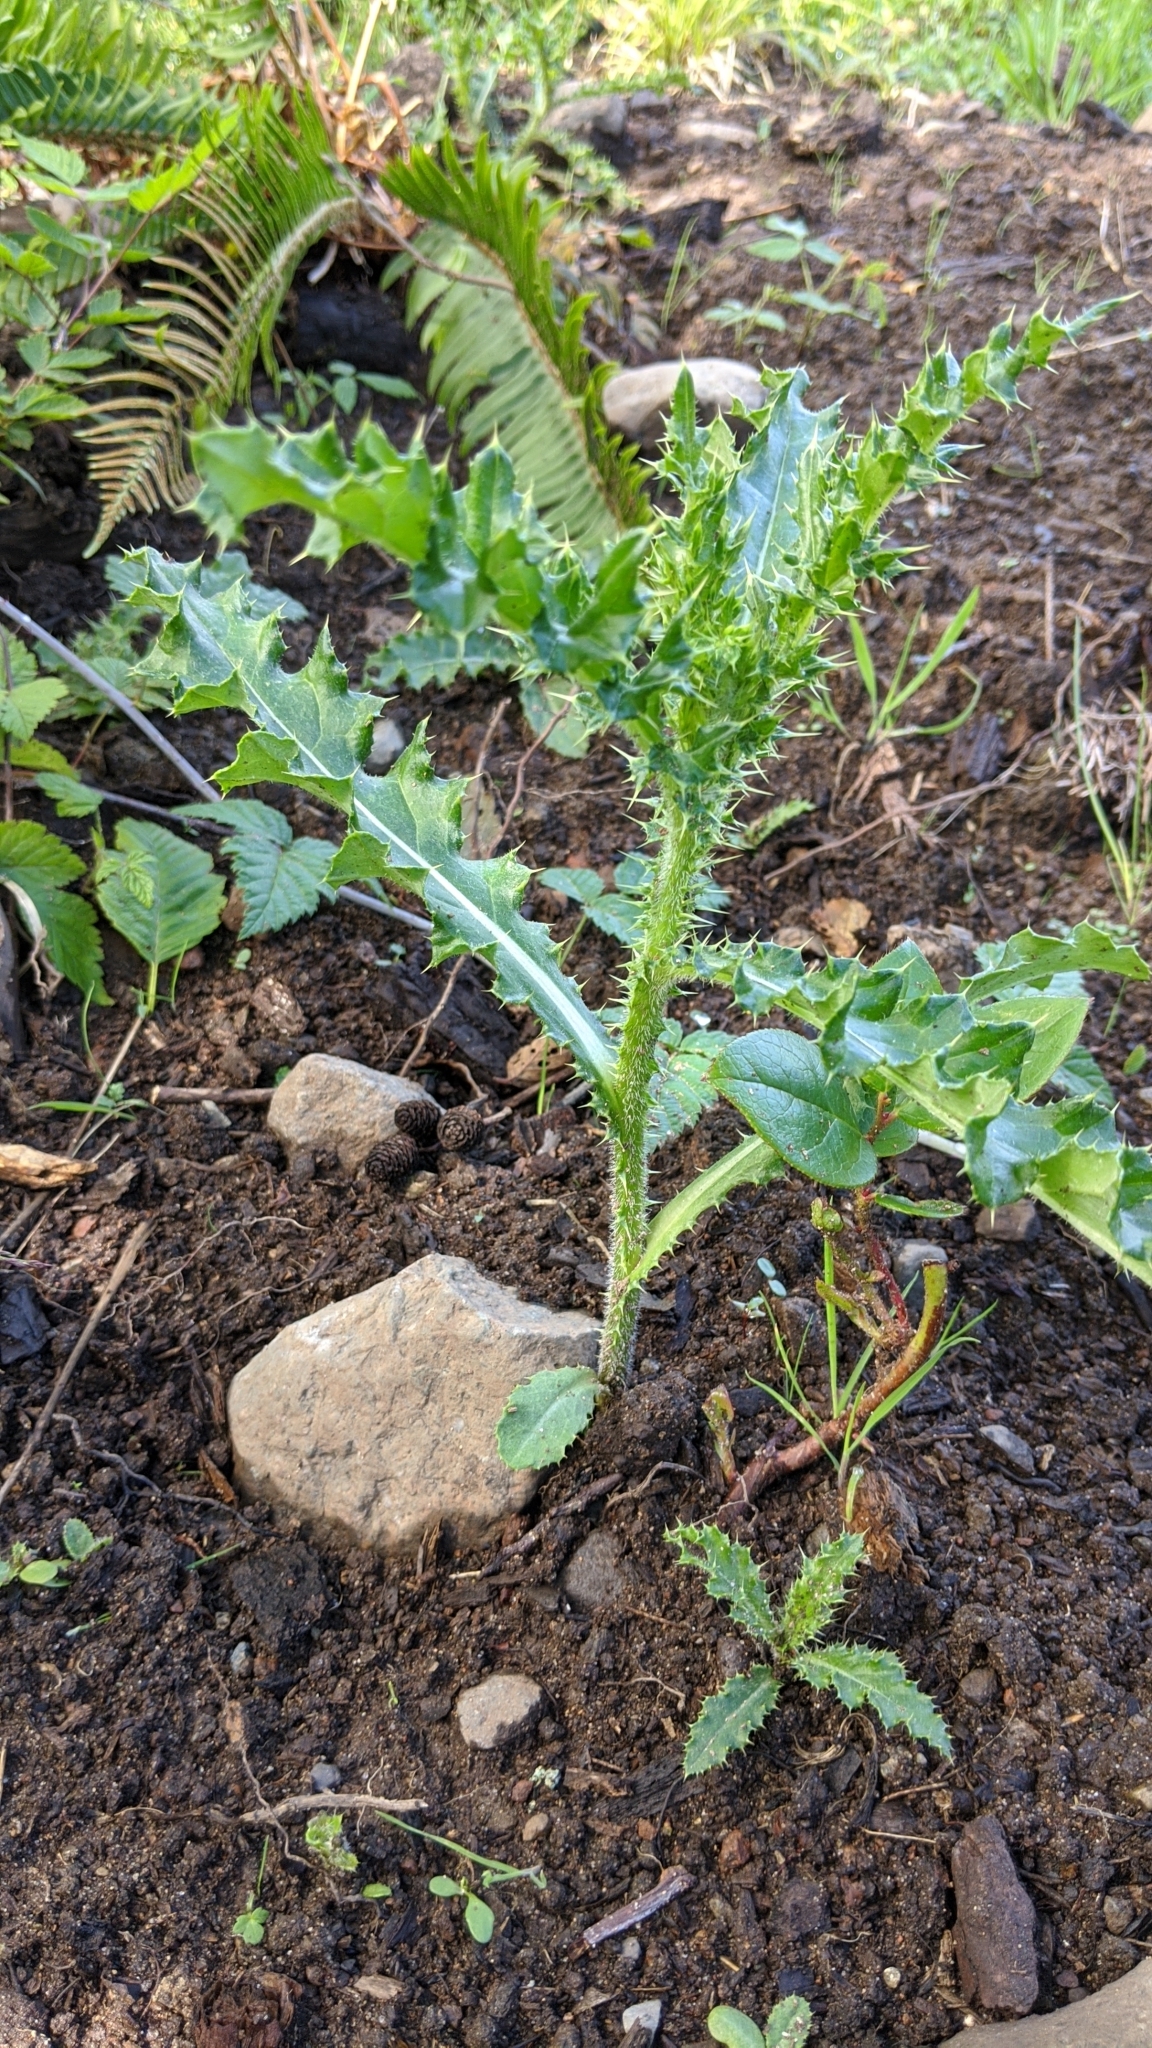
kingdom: Plantae
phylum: Tracheophyta
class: Magnoliopsida
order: Asterales
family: Asteraceae
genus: Cirsium
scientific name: Cirsium arvense
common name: Creeping thistle
